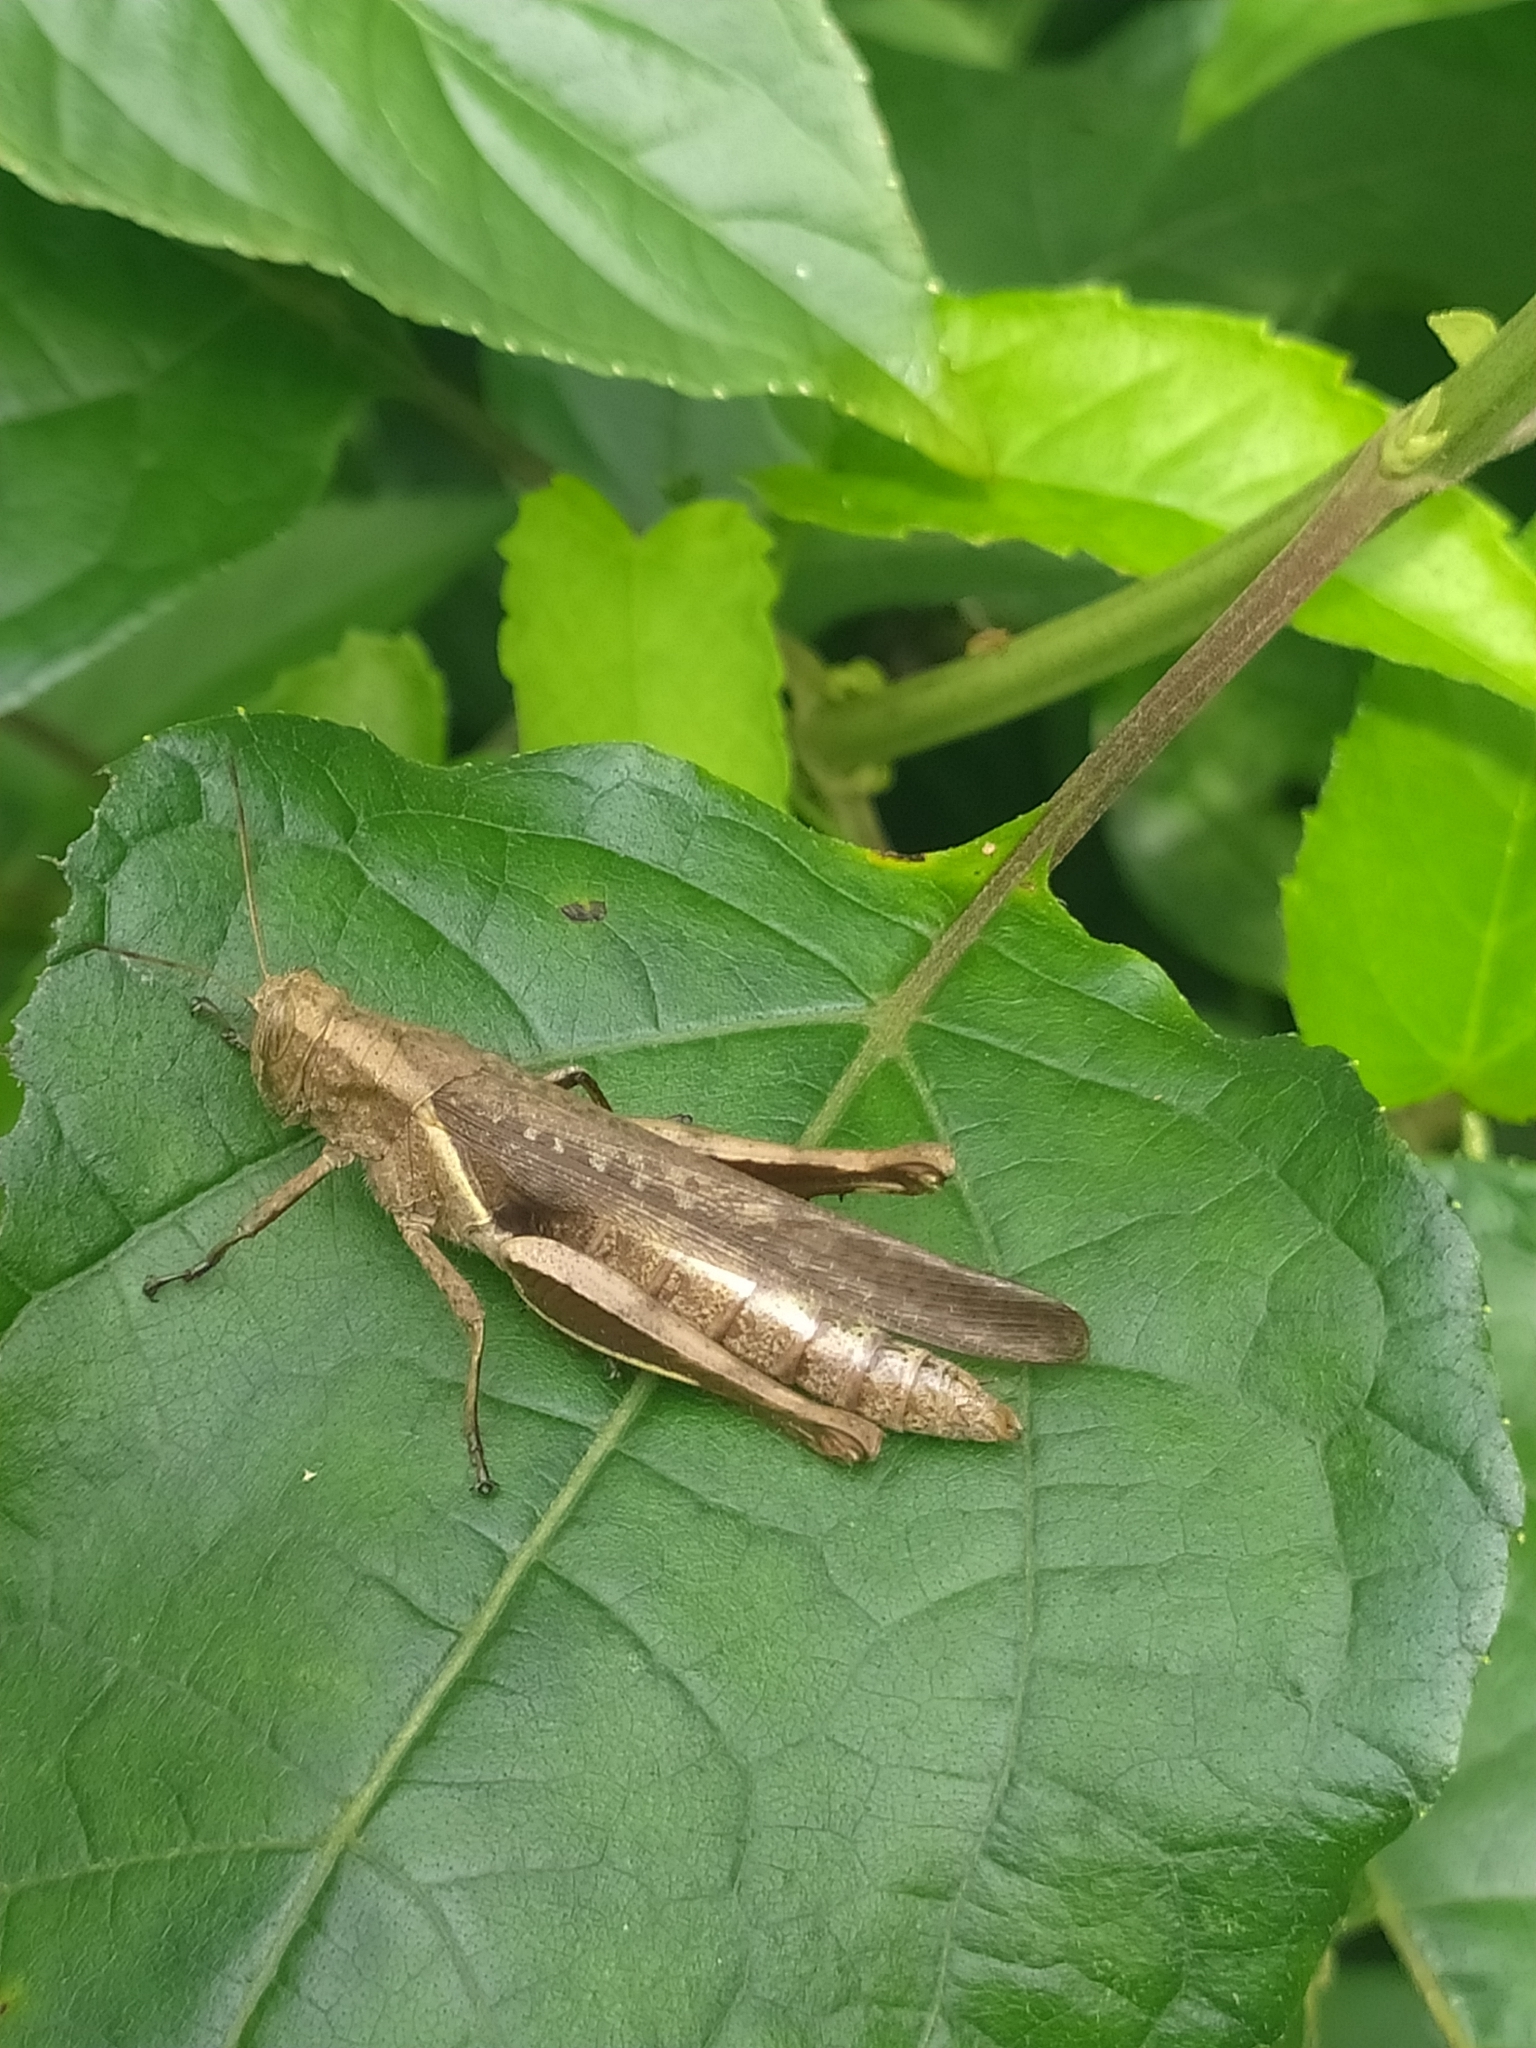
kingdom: Animalia
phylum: Arthropoda
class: Insecta
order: Orthoptera
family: Acrididae
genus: Abracris
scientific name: Abracris flavolineata
